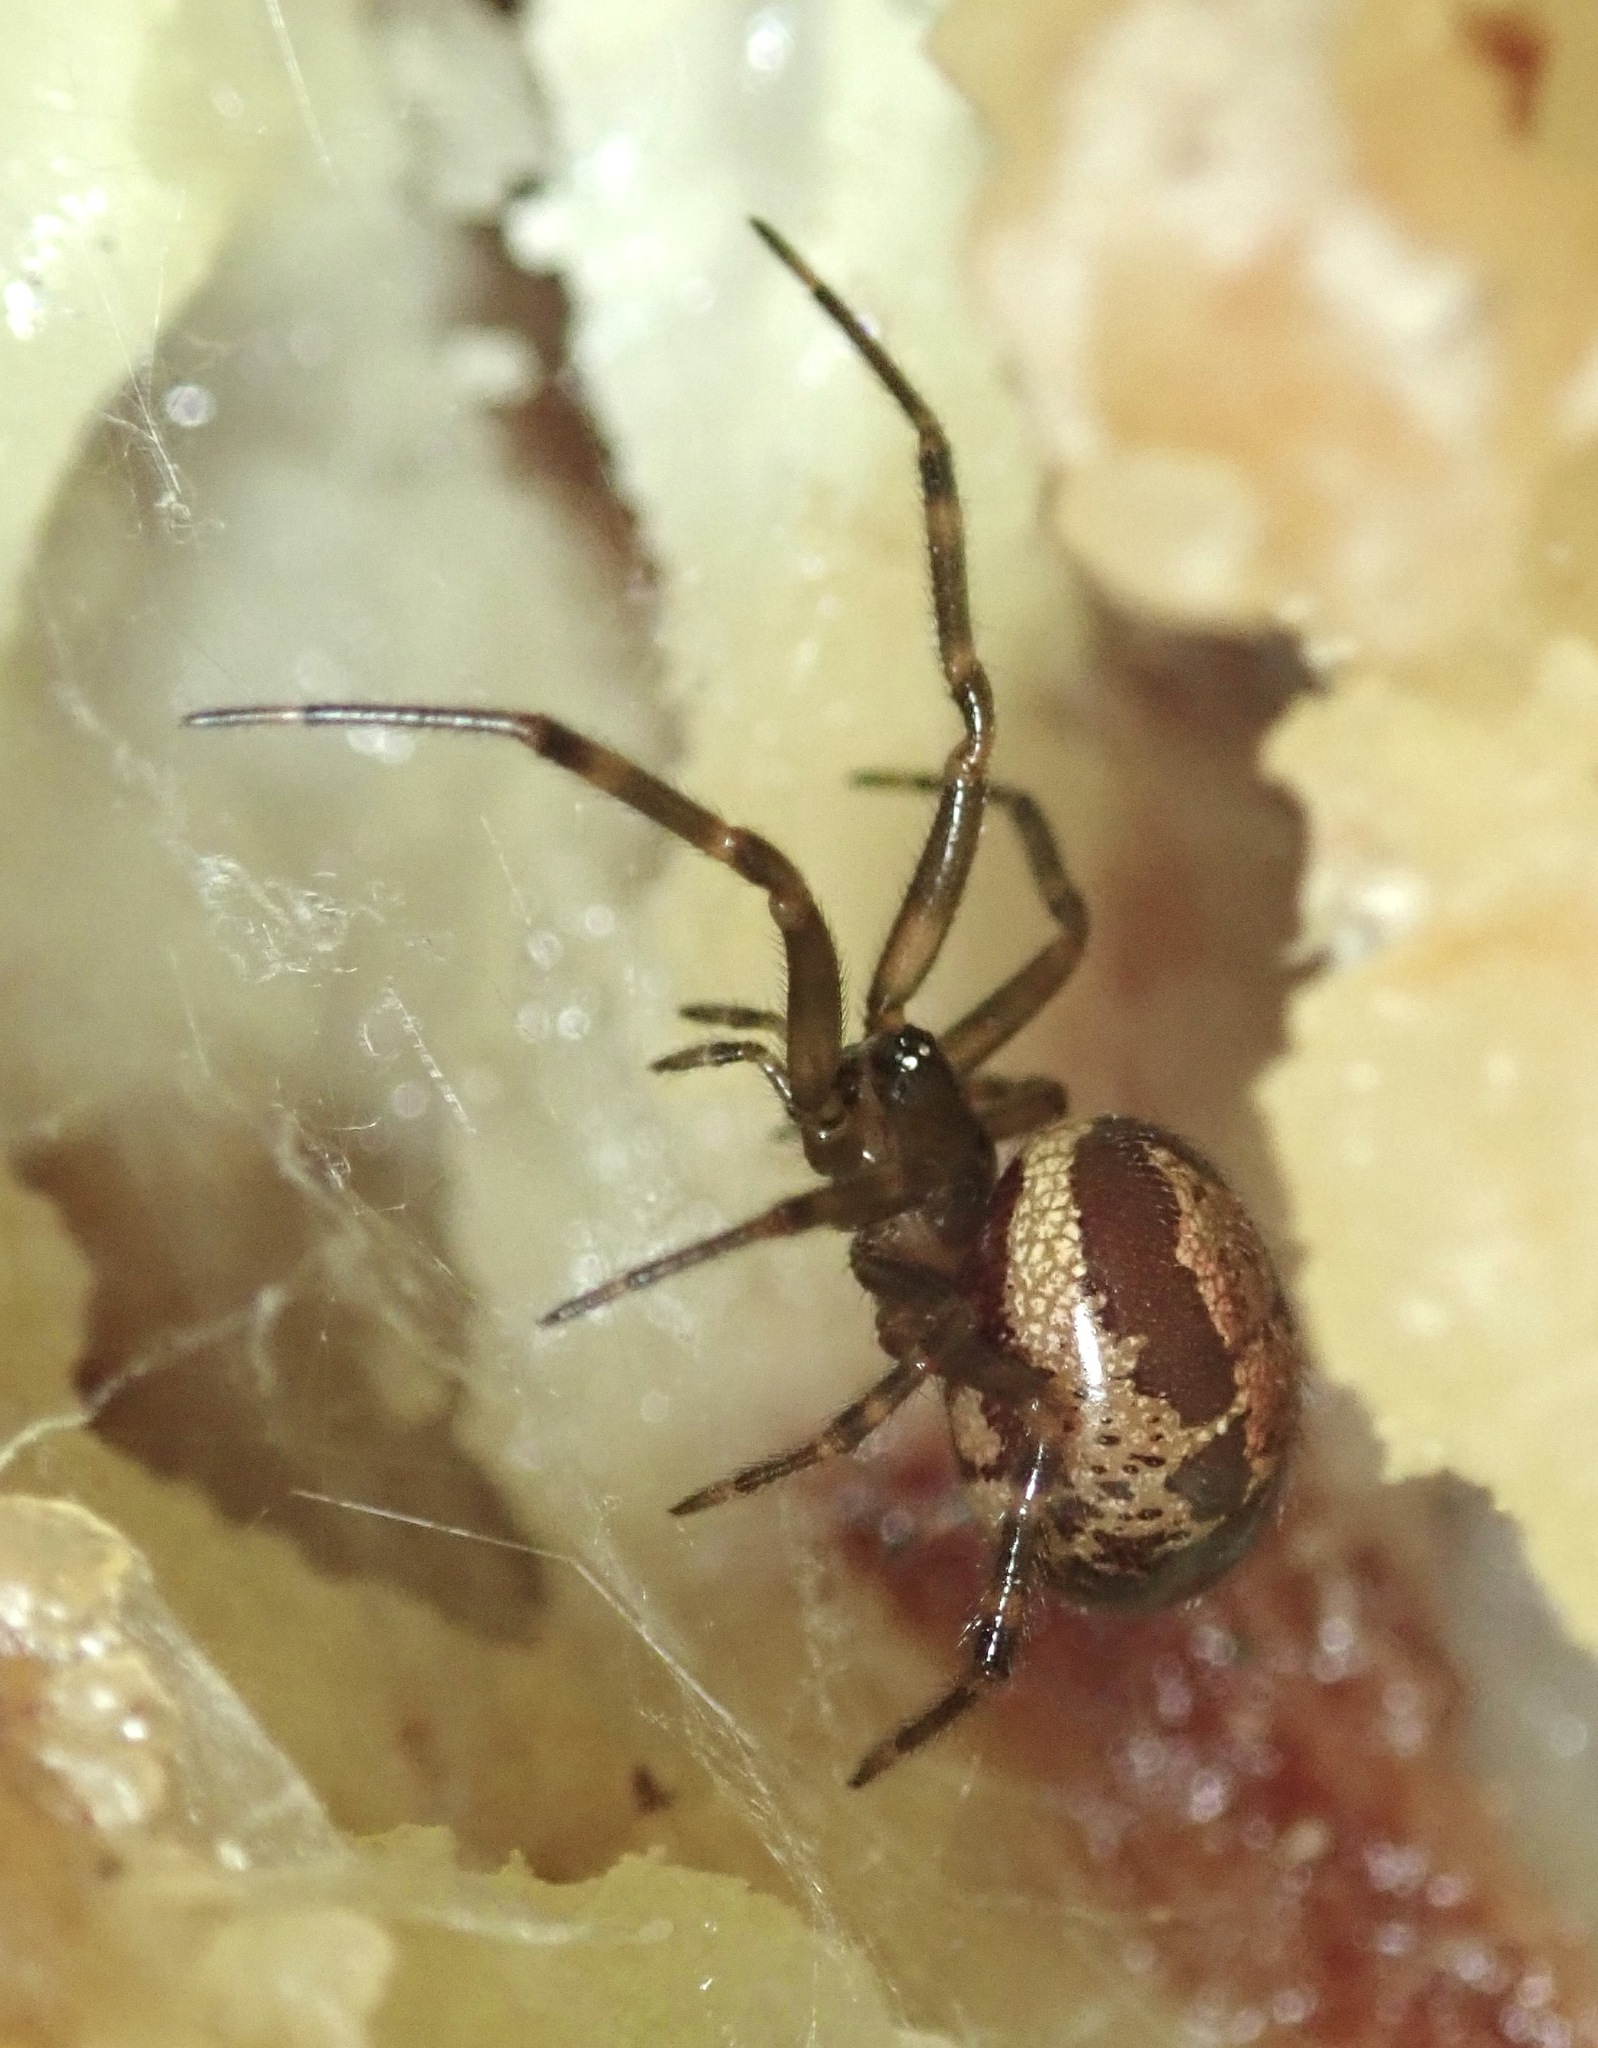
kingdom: Animalia
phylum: Arthropoda
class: Arachnida
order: Araneae
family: Theridiidae
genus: Steatoda
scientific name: Steatoda nobilis
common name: Cobweb weaver
